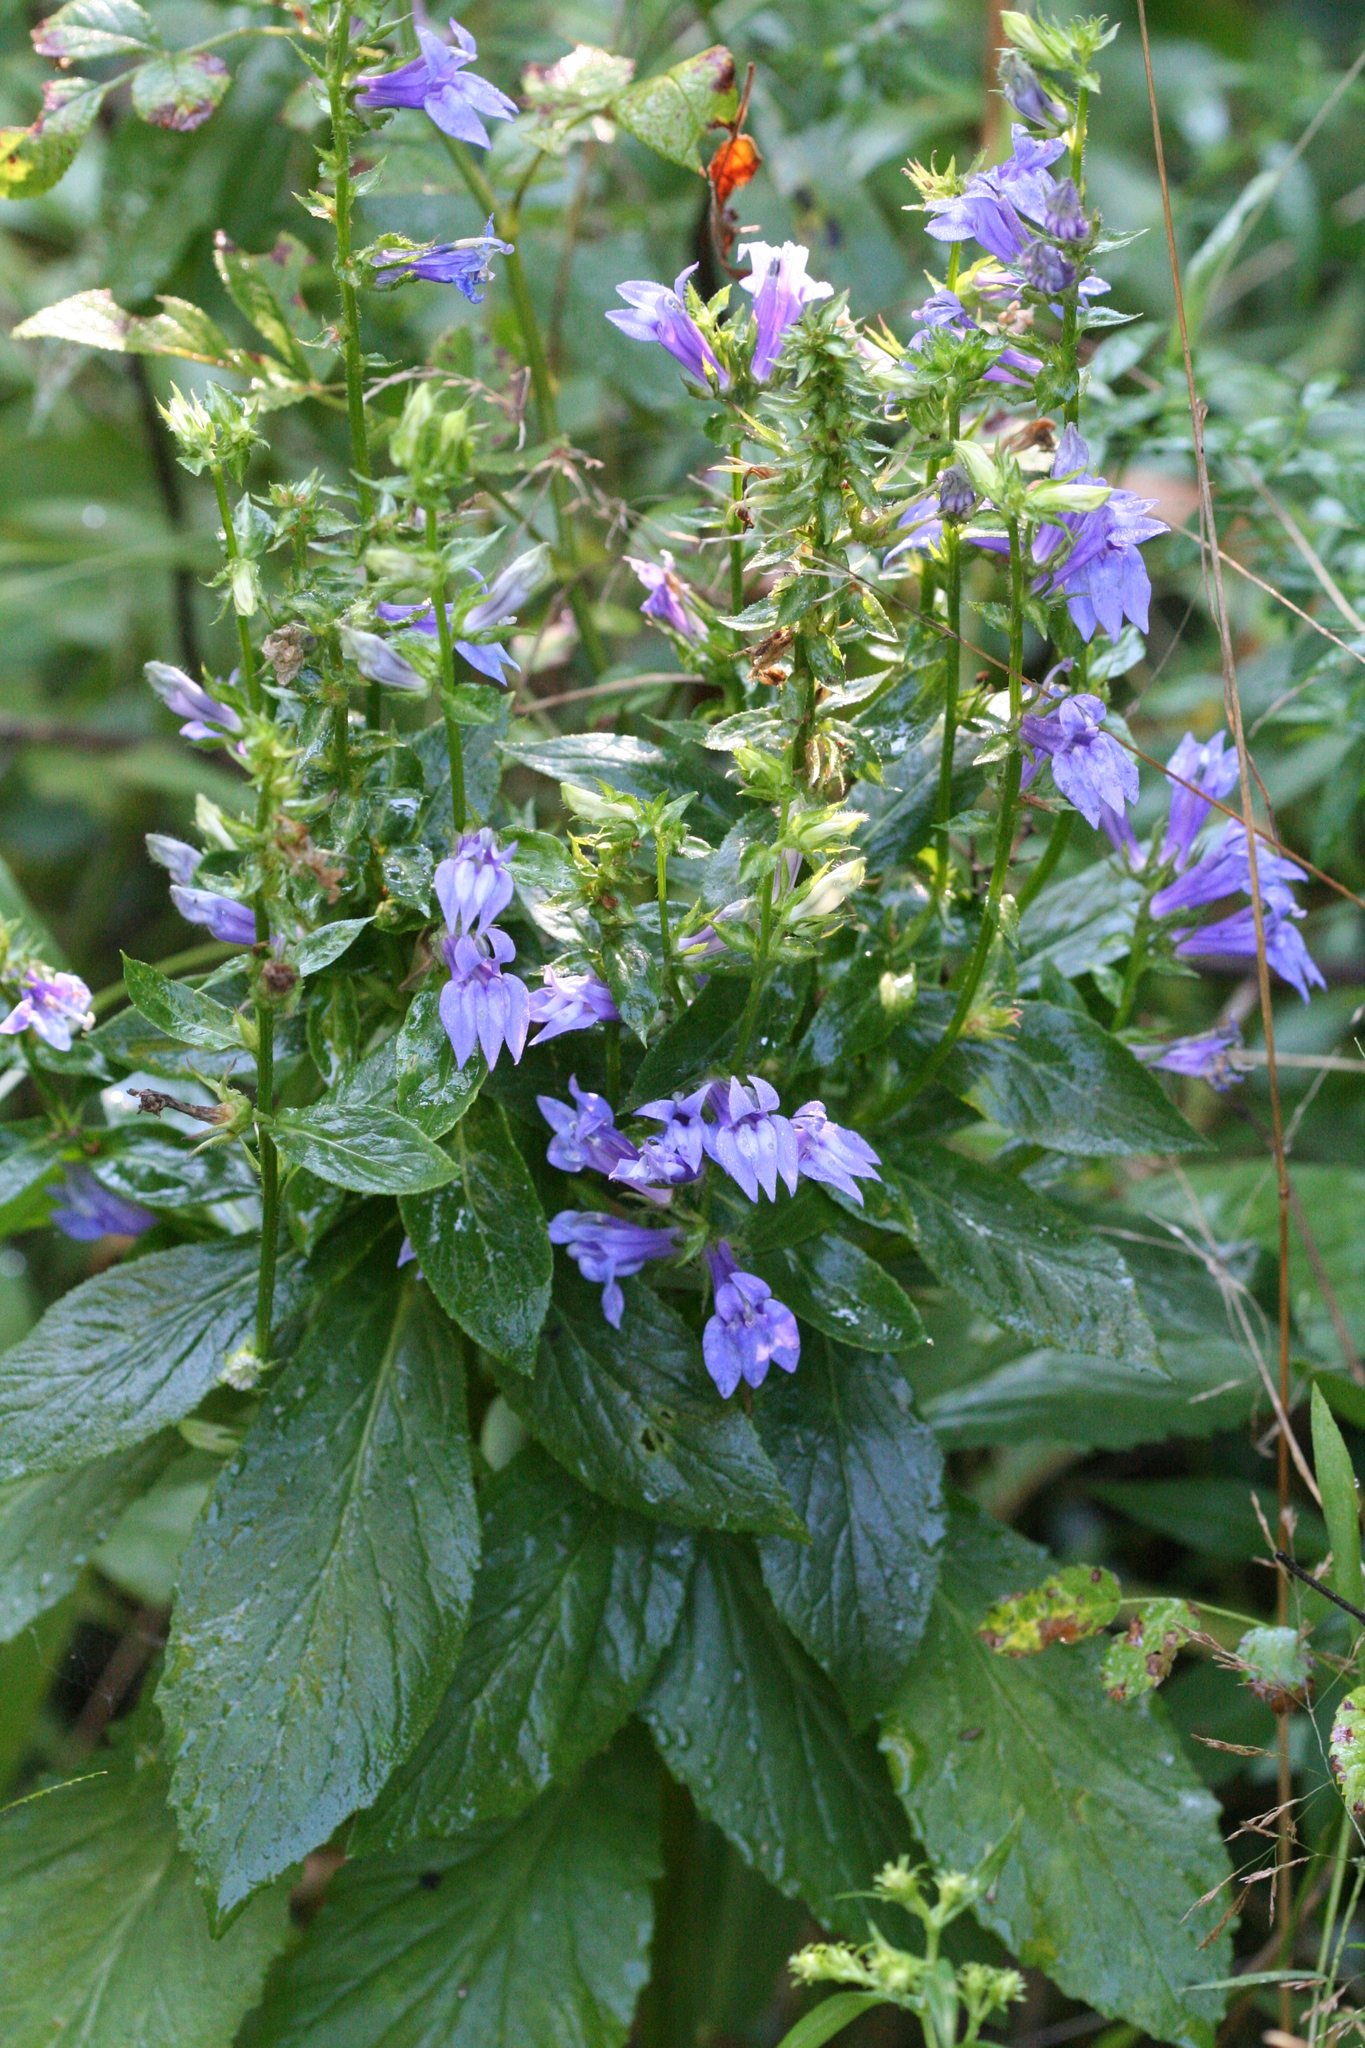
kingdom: Plantae
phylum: Tracheophyta
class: Magnoliopsida
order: Asterales
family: Campanulaceae
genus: Lobelia
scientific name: Lobelia siphilitica
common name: Great lobelia
